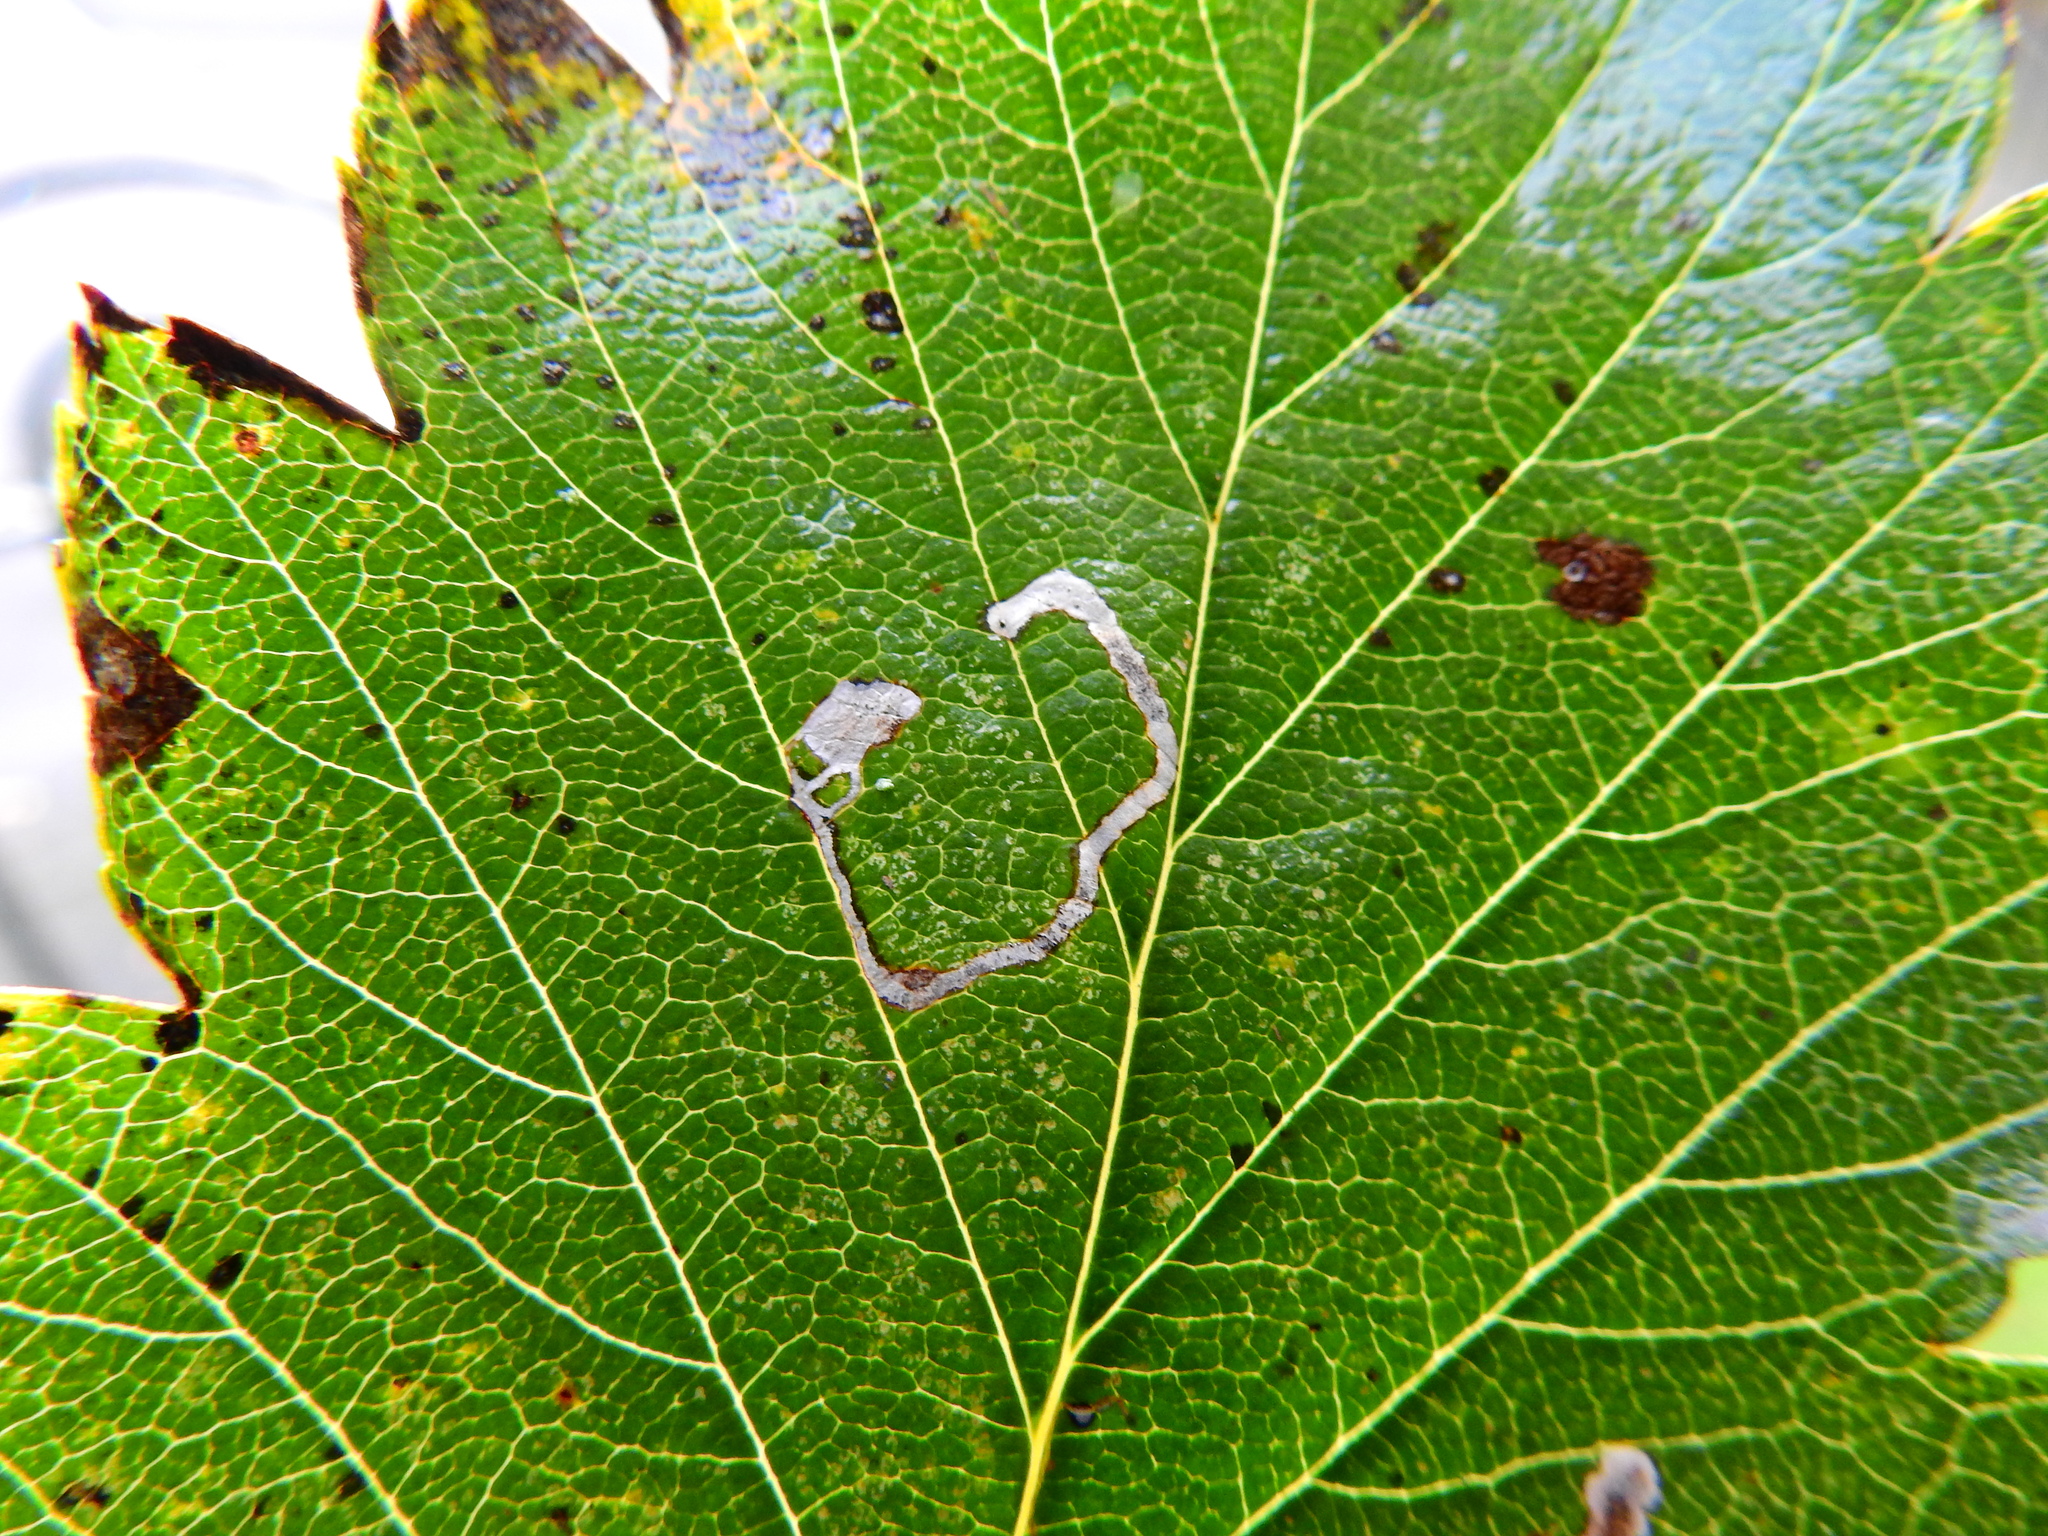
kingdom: Animalia
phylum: Arthropoda
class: Insecta
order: Lepidoptera
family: Lyonetiidae
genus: Lyonetia
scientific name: Lyonetia clerkella
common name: Apple leaf miner
